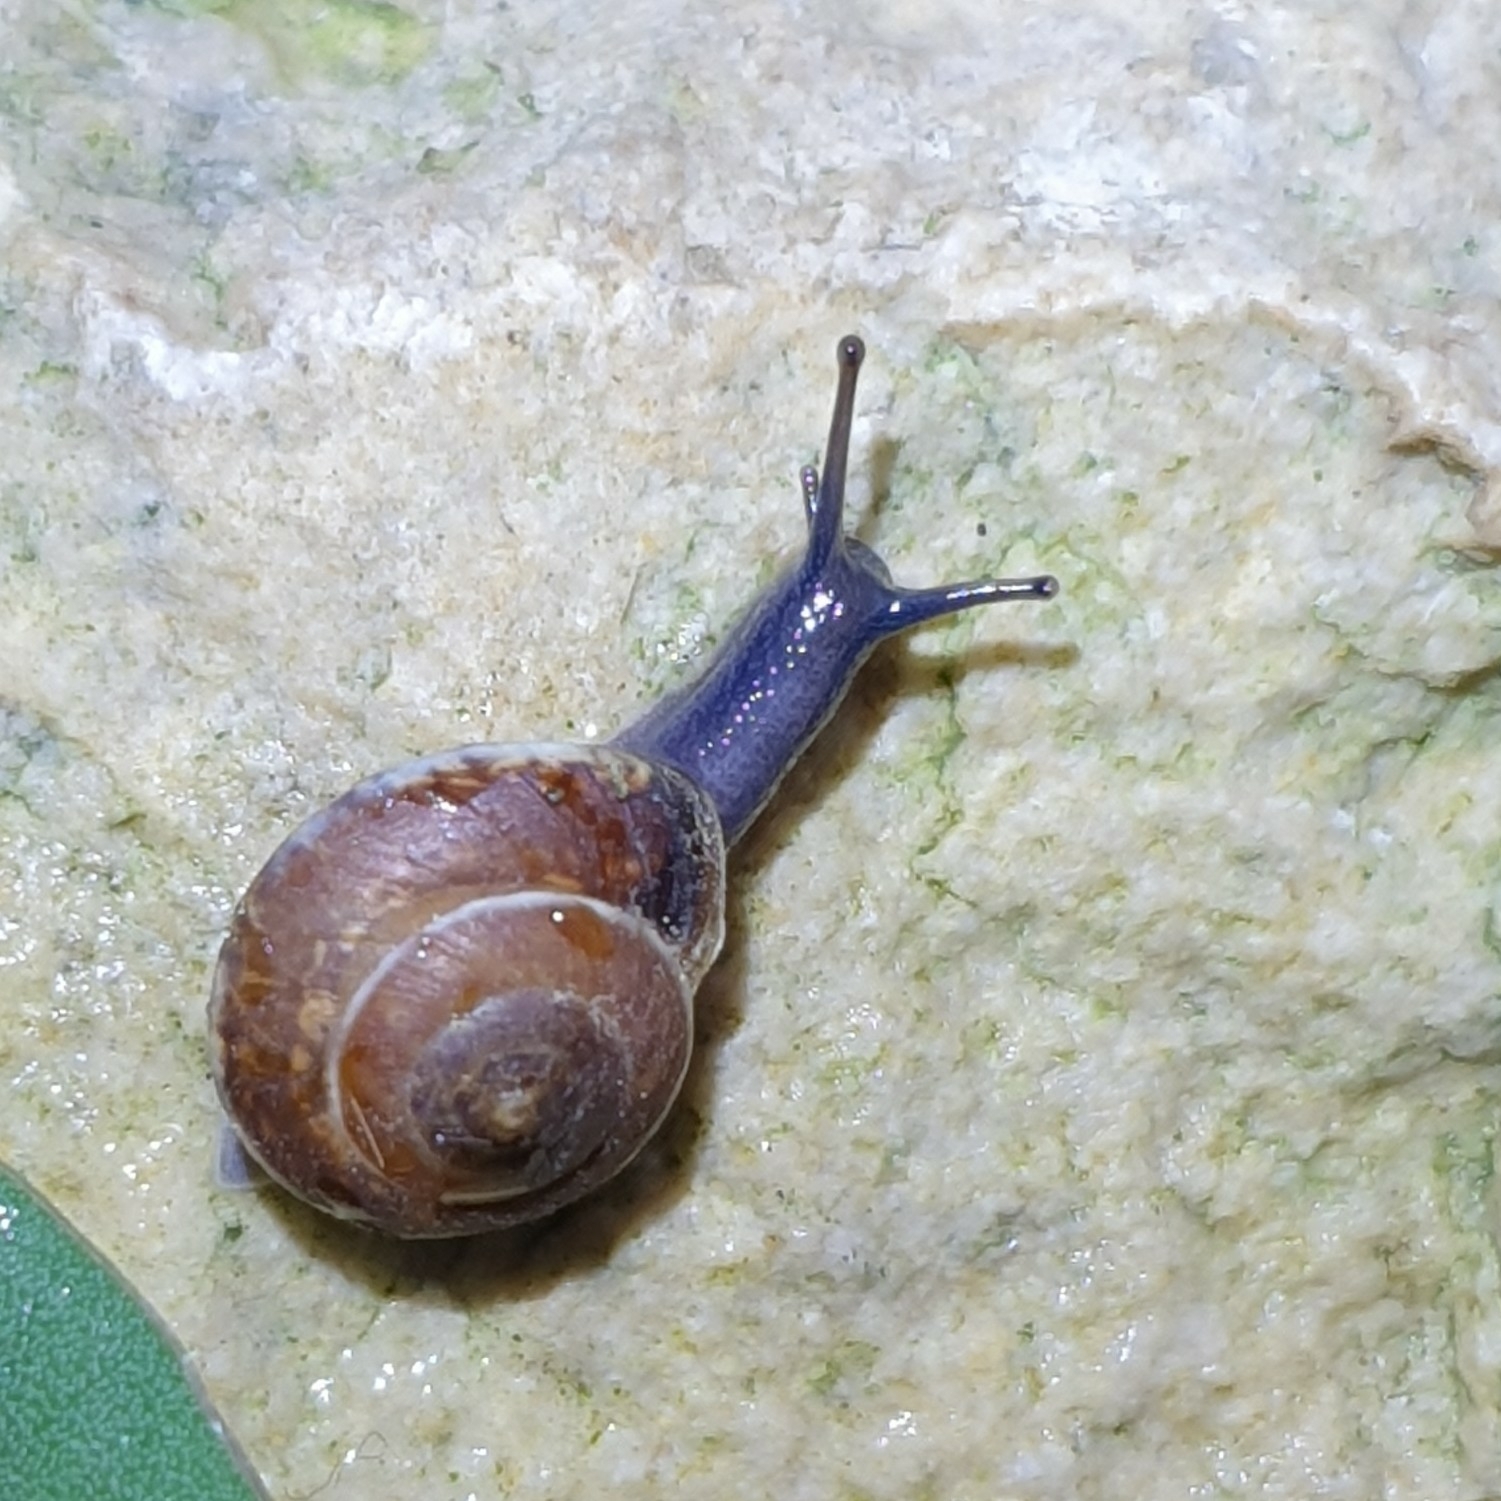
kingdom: Animalia
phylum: Mollusca
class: Gastropoda
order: Stylommatophora
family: Hygromiidae
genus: Hygromia
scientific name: Hygromia cinctella
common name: Girdled snail
